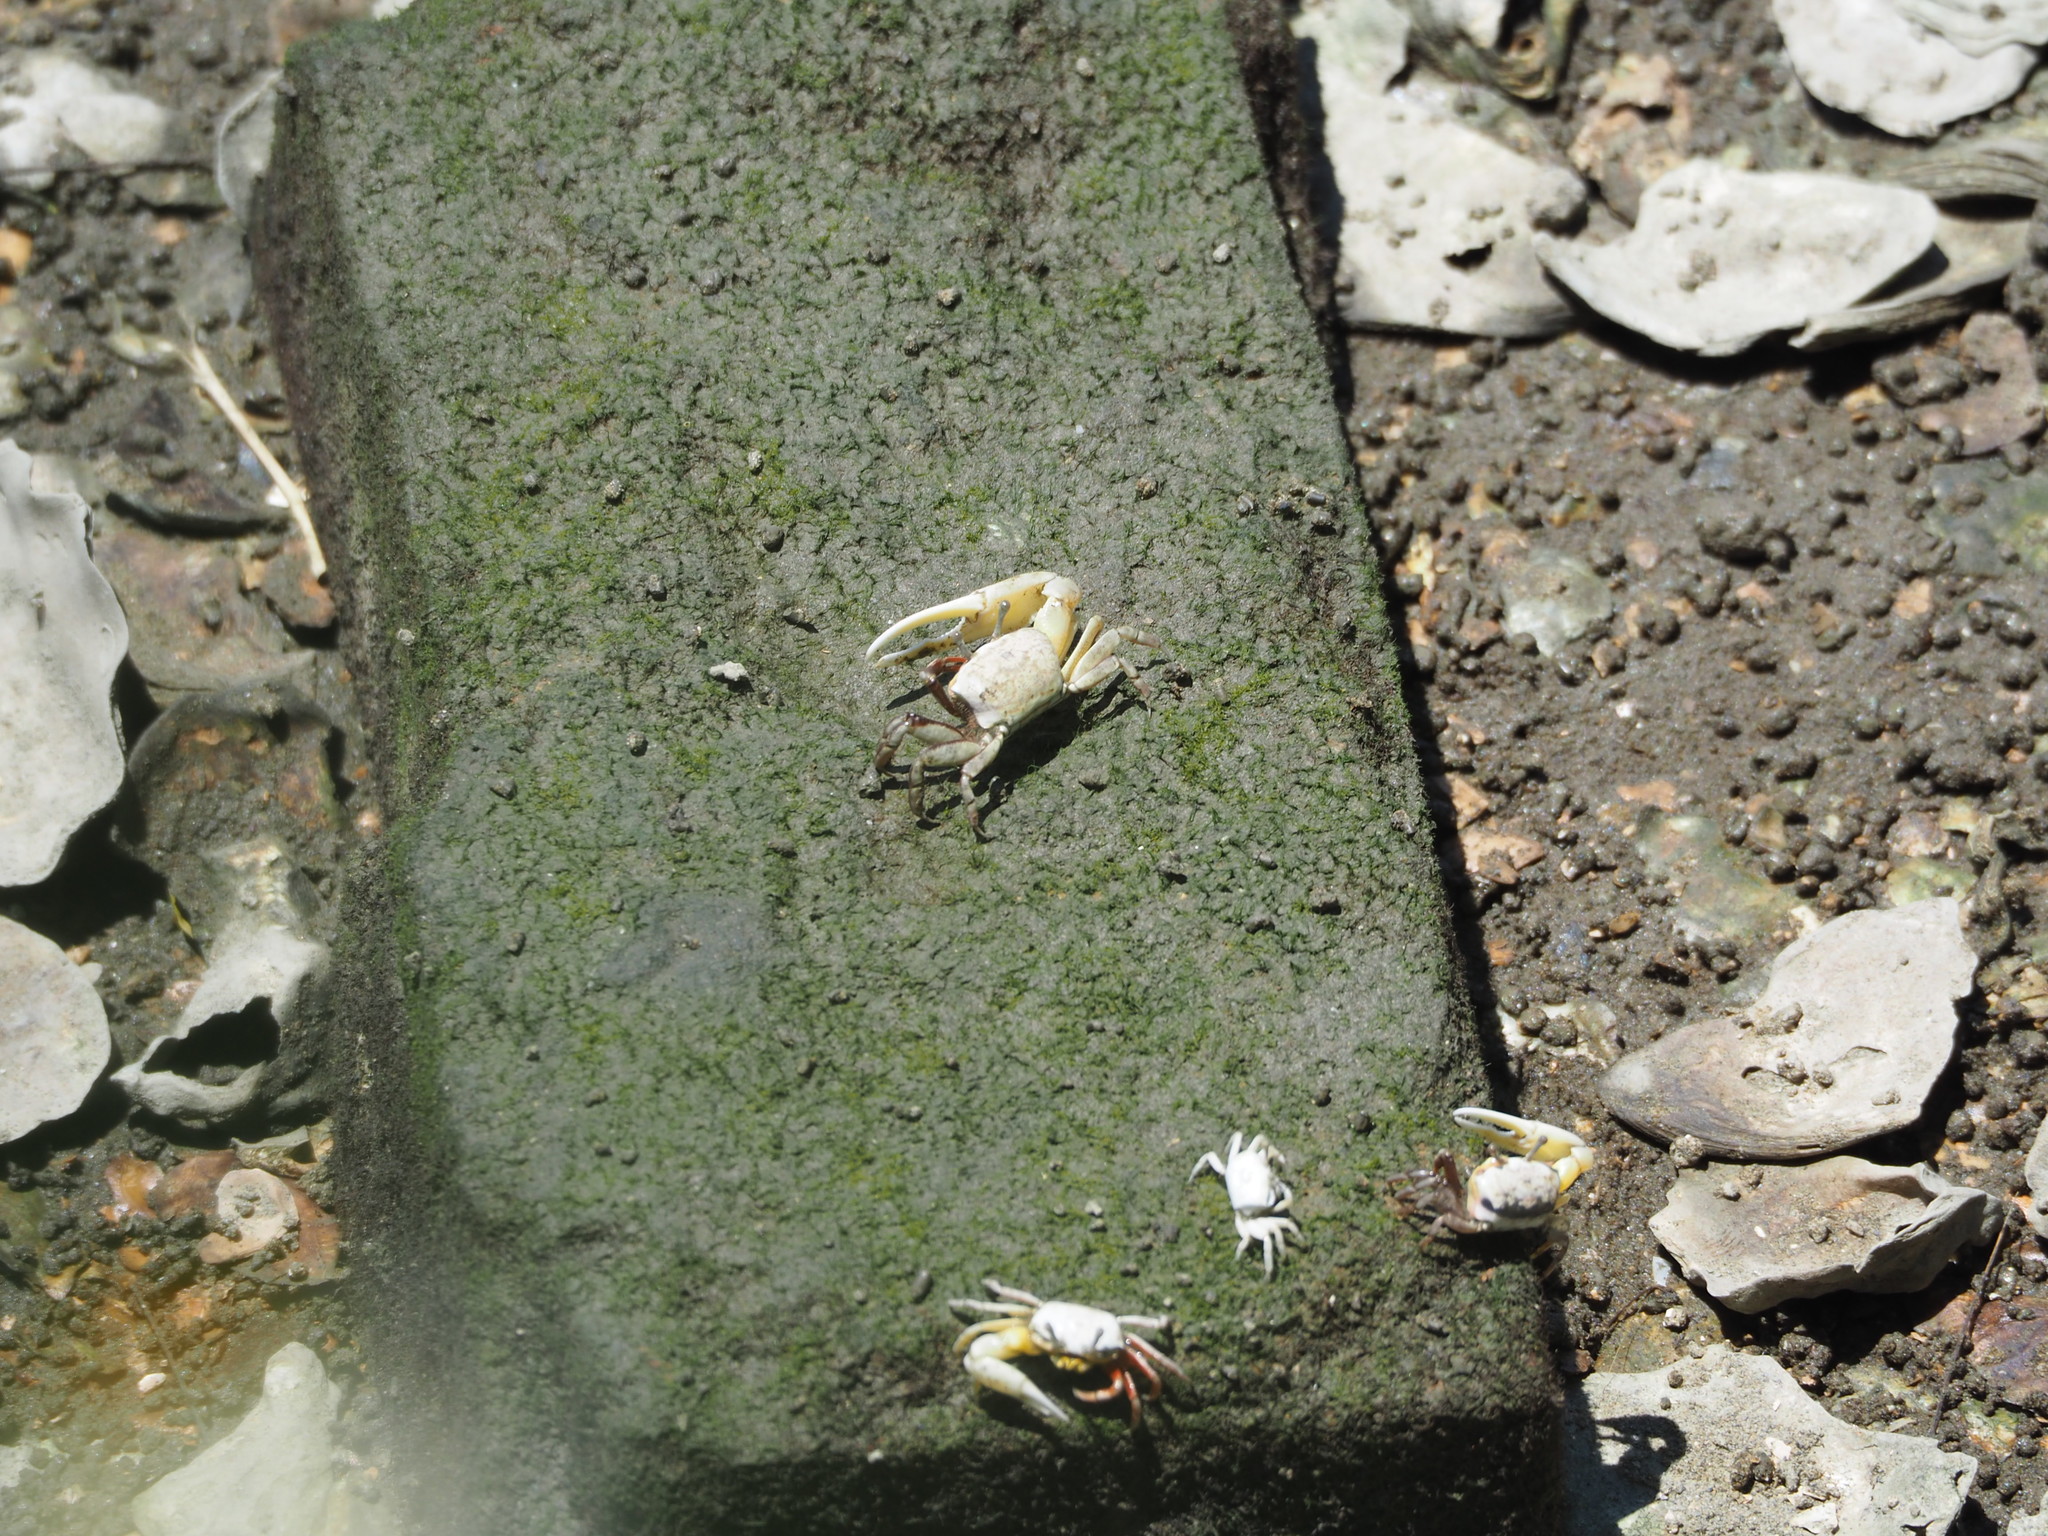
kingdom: Animalia
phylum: Arthropoda
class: Malacostraca
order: Decapoda
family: Ocypodidae
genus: Austruca
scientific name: Austruca lactea
